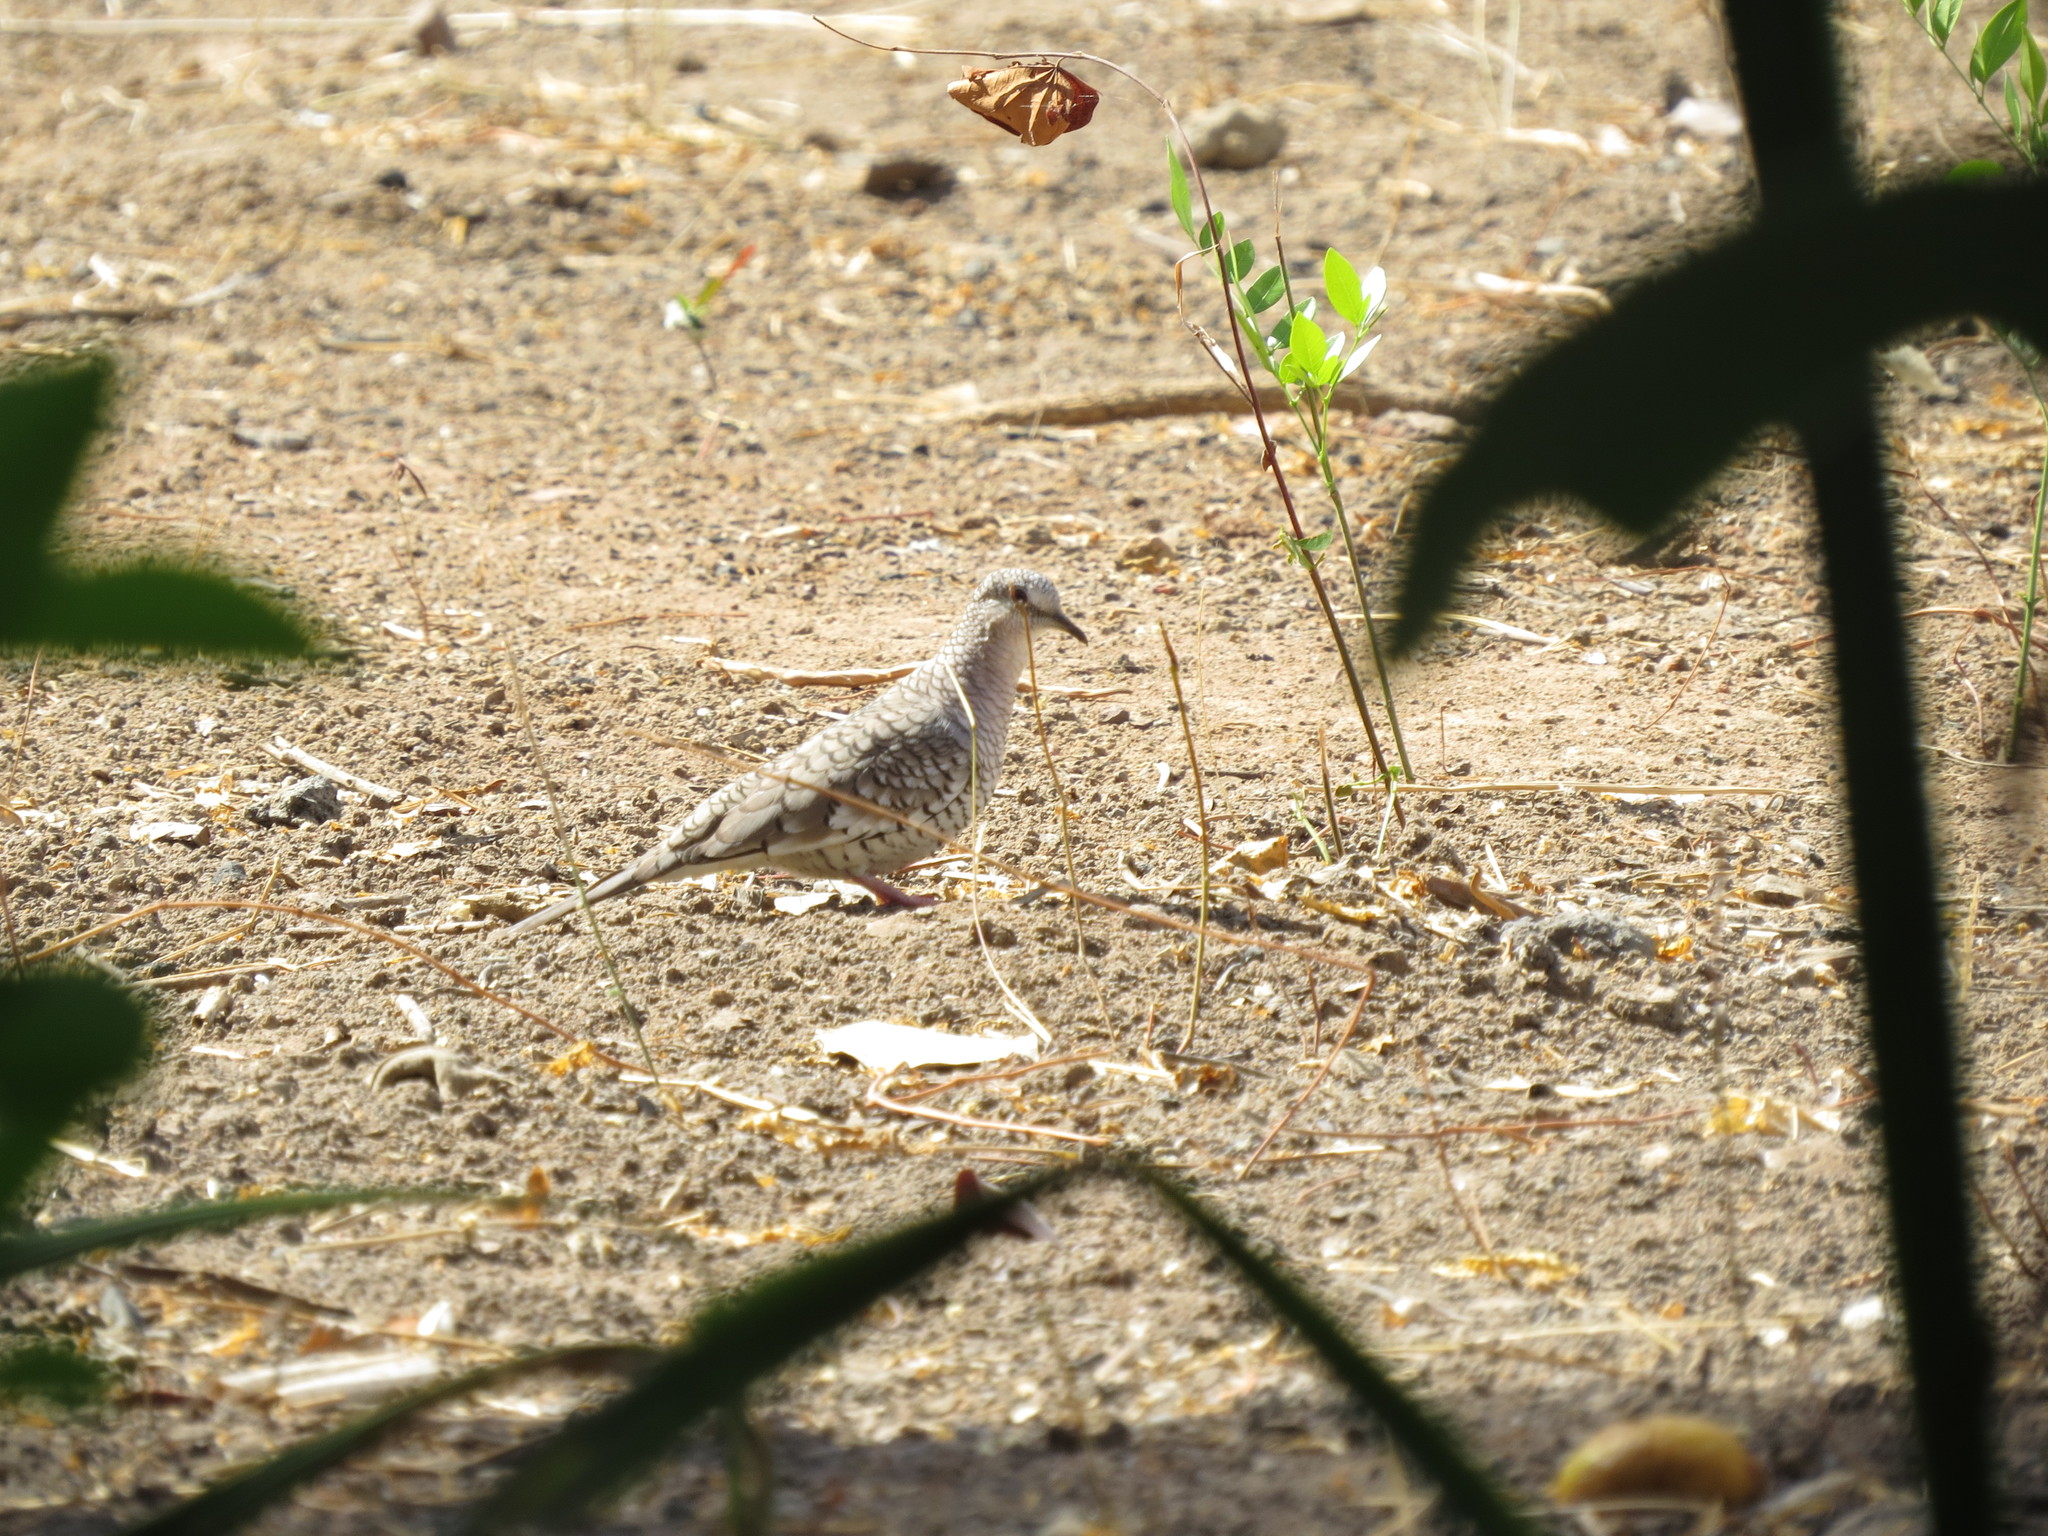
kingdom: Animalia
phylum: Chordata
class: Aves
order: Columbiformes
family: Columbidae
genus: Columbina
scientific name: Columbina squammata
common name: Scaled dove
